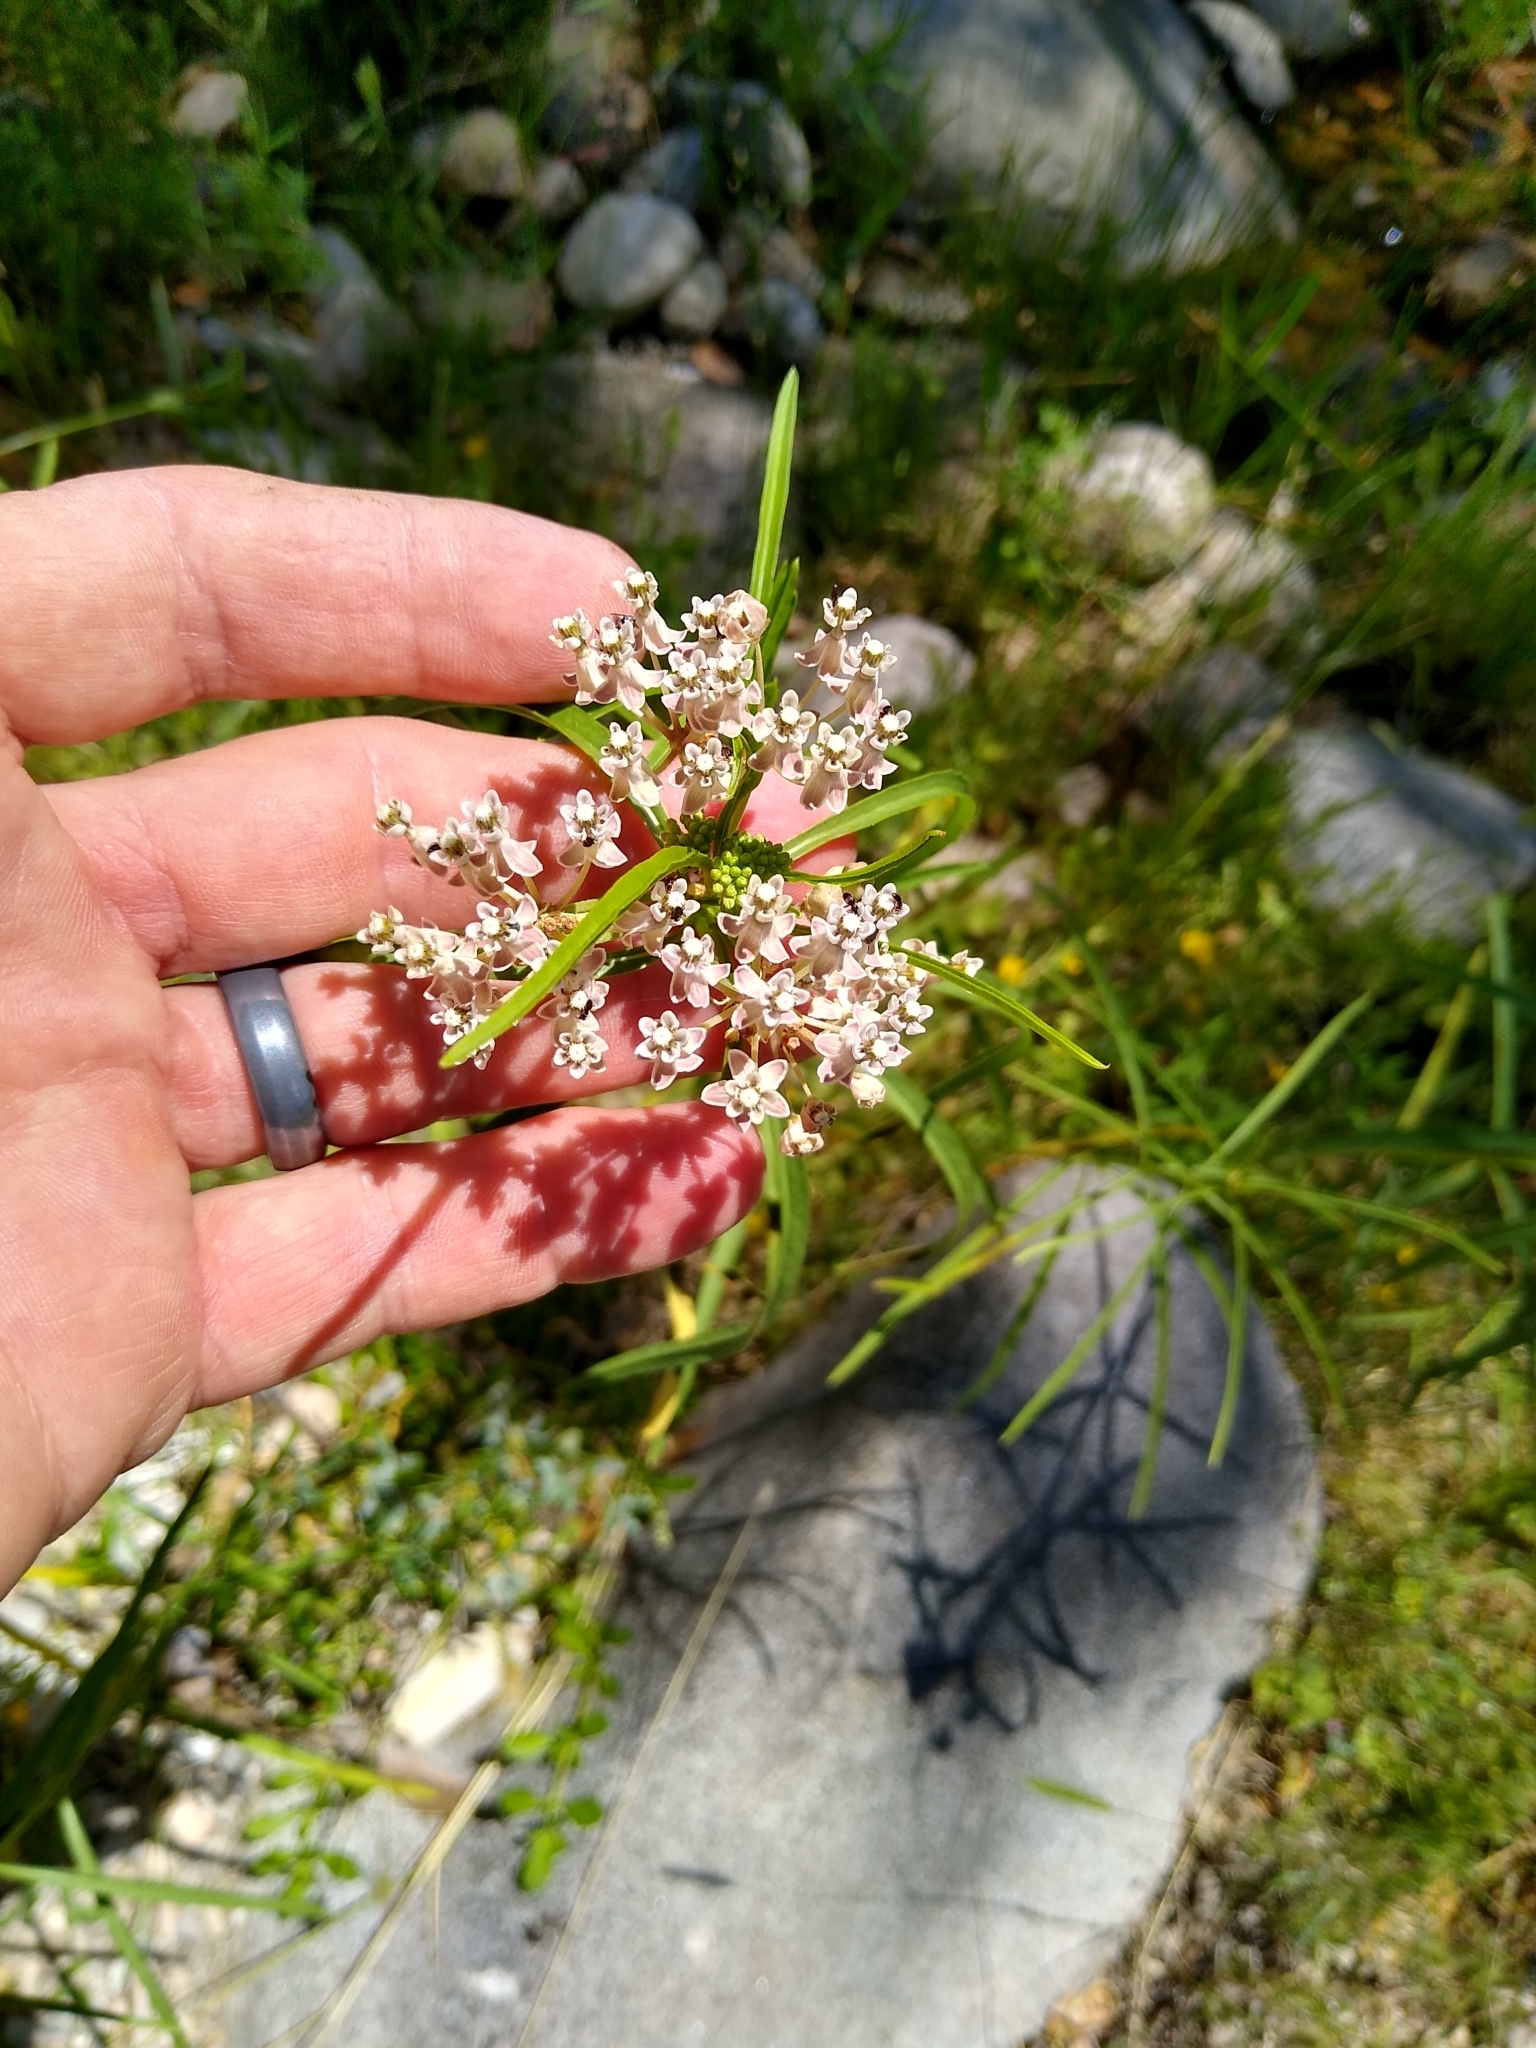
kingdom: Plantae
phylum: Tracheophyta
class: Magnoliopsida
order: Gentianales
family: Apocynaceae
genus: Asclepias
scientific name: Asclepias fascicularis
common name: Mexican milkweed
